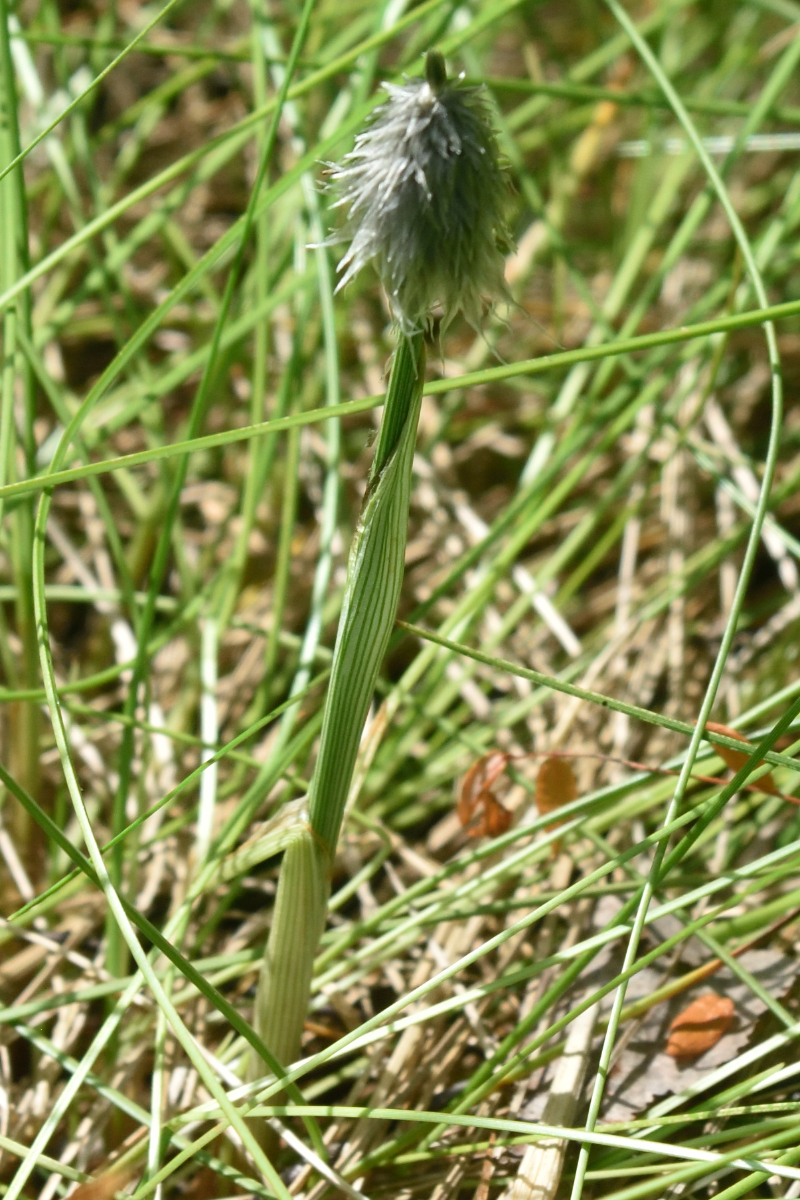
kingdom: Plantae
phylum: Tracheophyta
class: Liliopsida
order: Poales
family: Cyperaceae
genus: Eriophorum
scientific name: Eriophorum vaginatum
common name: Hare's-tail cottongrass
